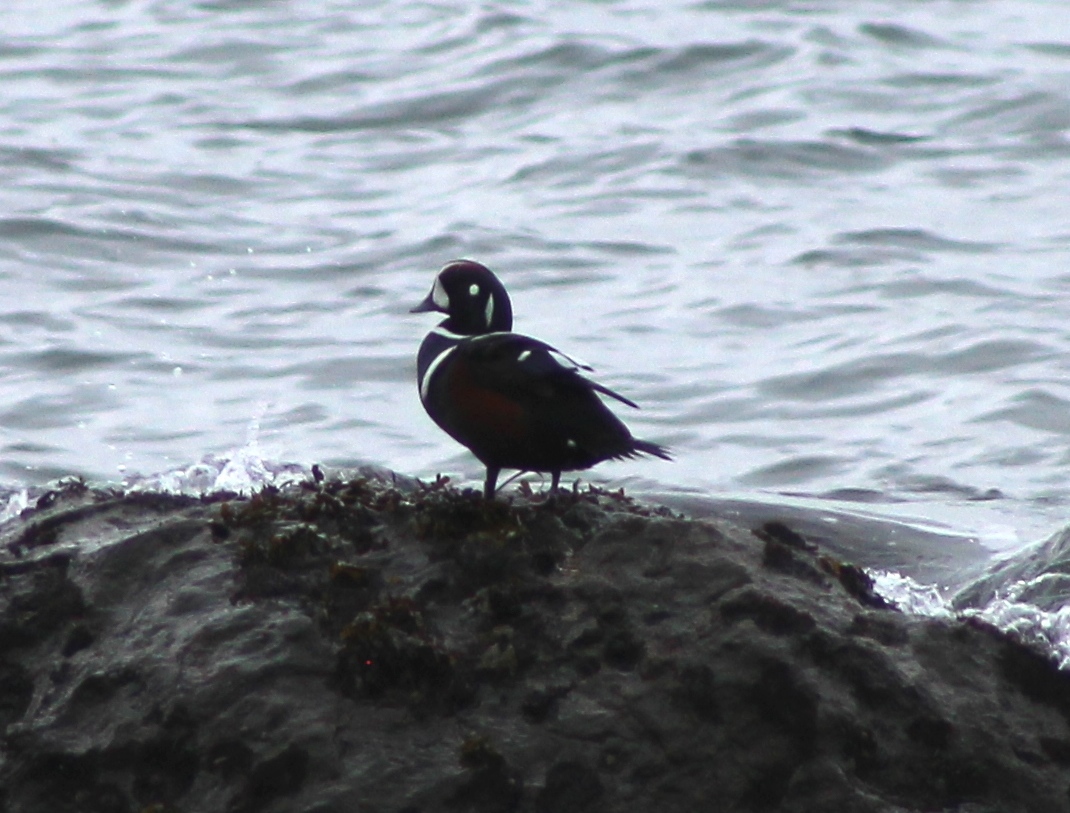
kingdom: Animalia
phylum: Chordata
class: Aves
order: Anseriformes
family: Anatidae
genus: Histrionicus
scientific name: Histrionicus histrionicus
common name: Harlequin duck
